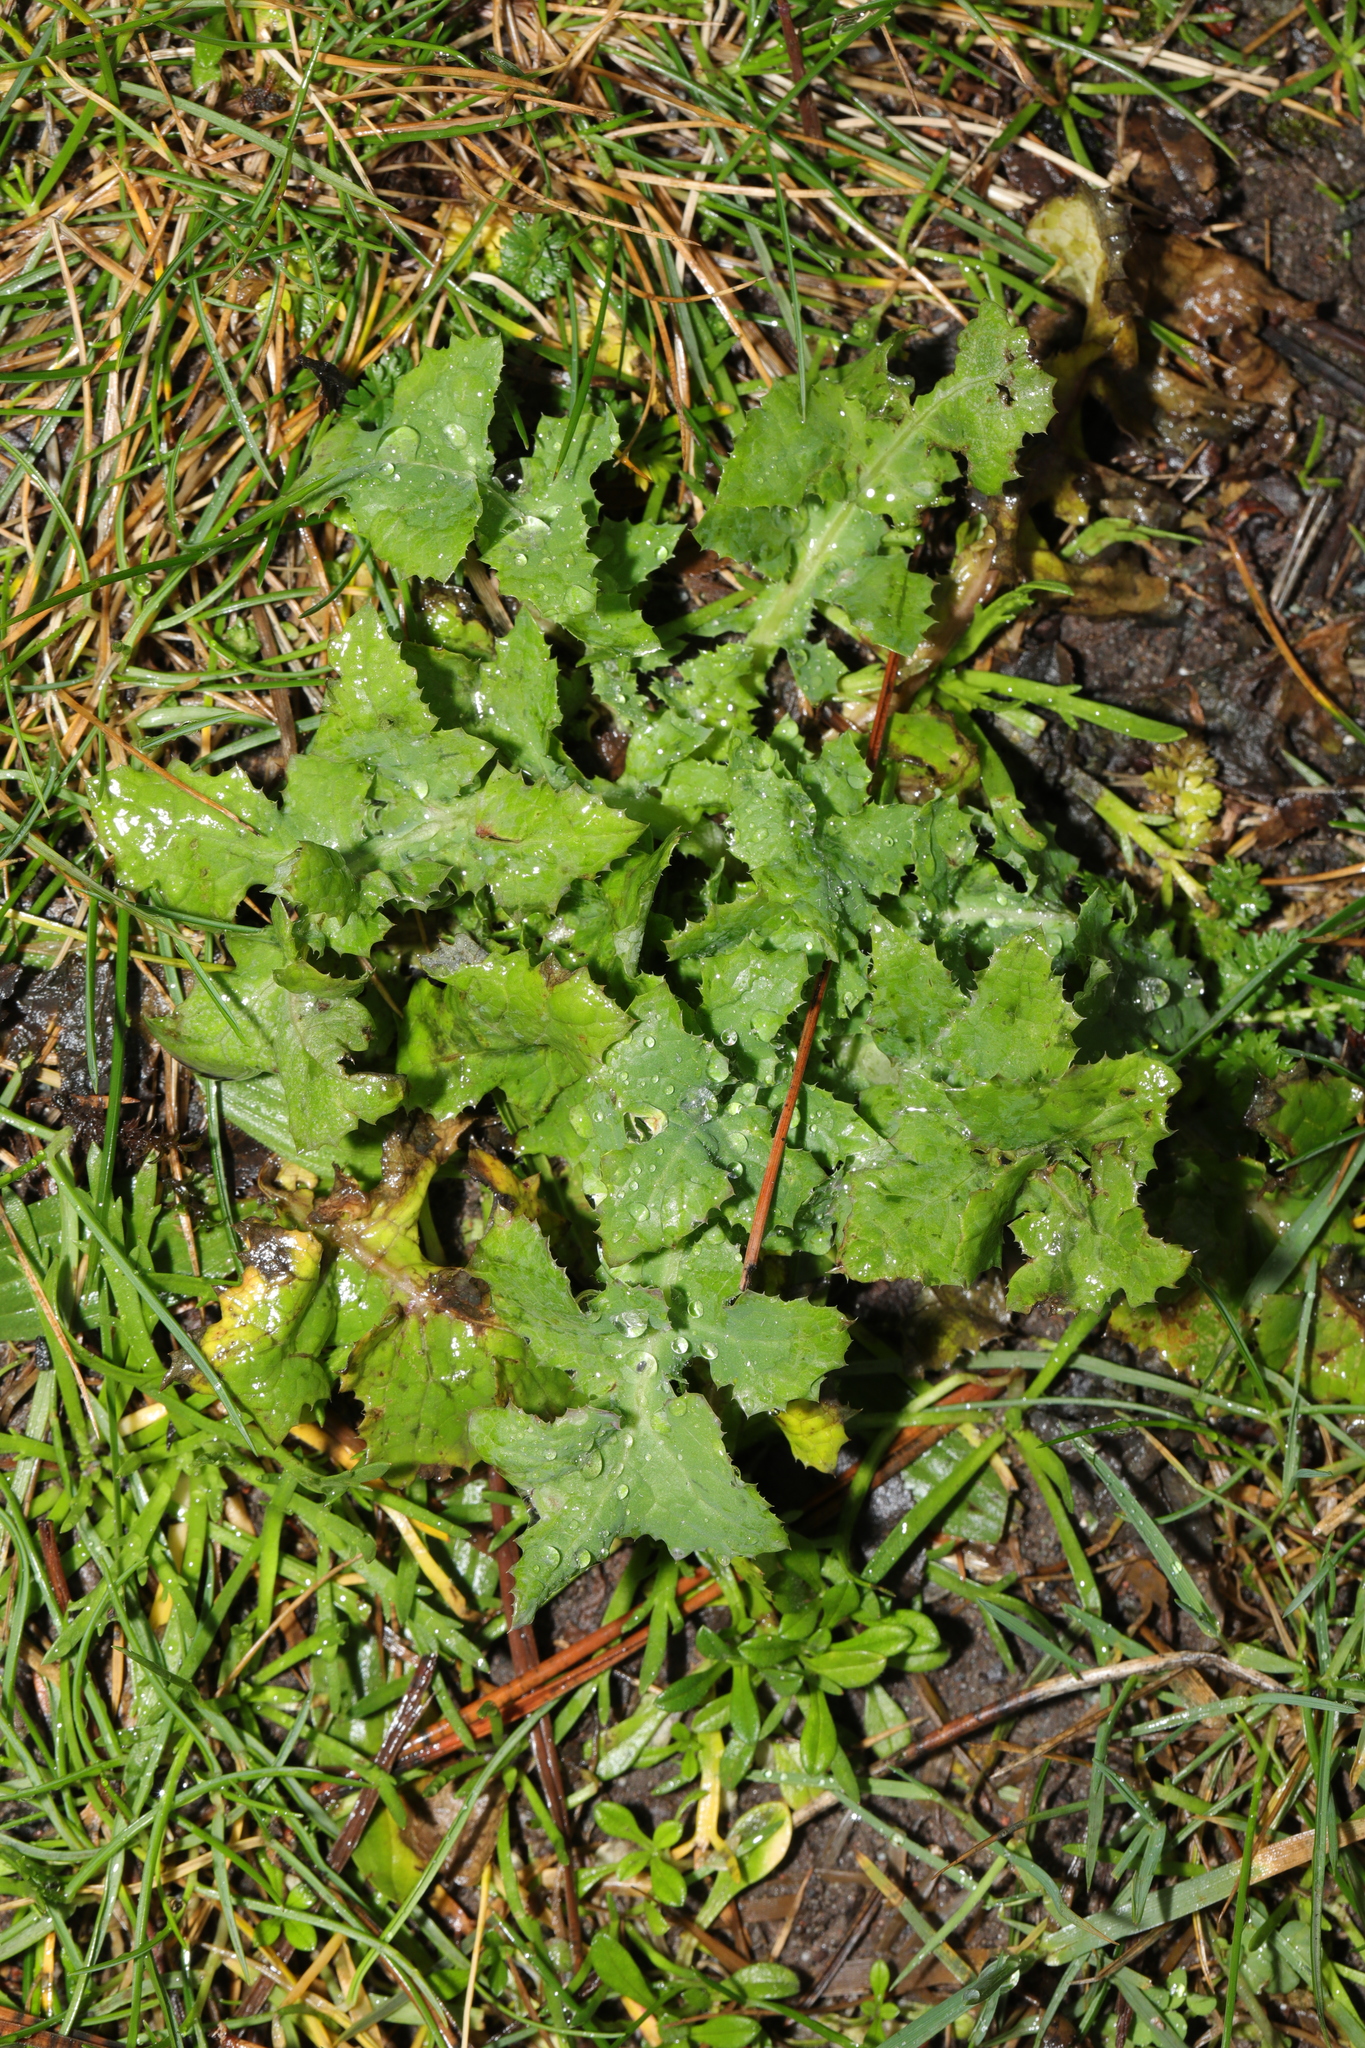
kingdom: Plantae
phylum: Tracheophyta
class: Magnoliopsida
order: Asterales
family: Asteraceae
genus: Sonchus
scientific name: Sonchus oleraceus
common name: Common sowthistle
